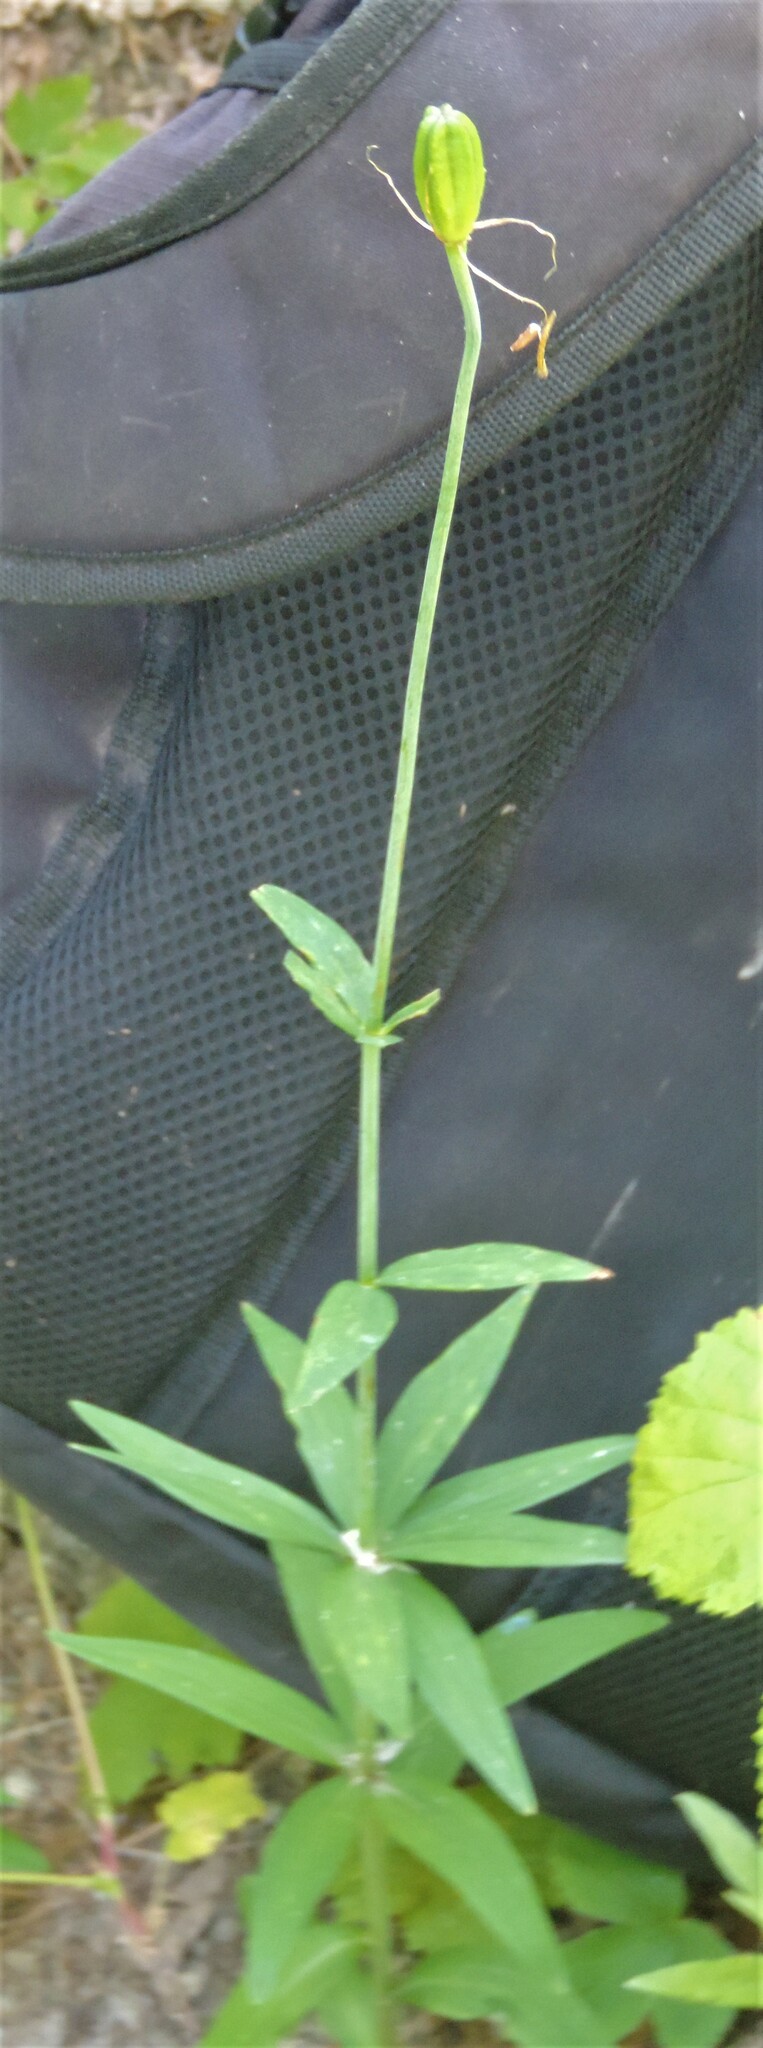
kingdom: Plantae
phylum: Tracheophyta
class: Liliopsida
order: Liliales
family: Liliaceae
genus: Lilium
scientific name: Lilium columbianum
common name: Columbia lily
